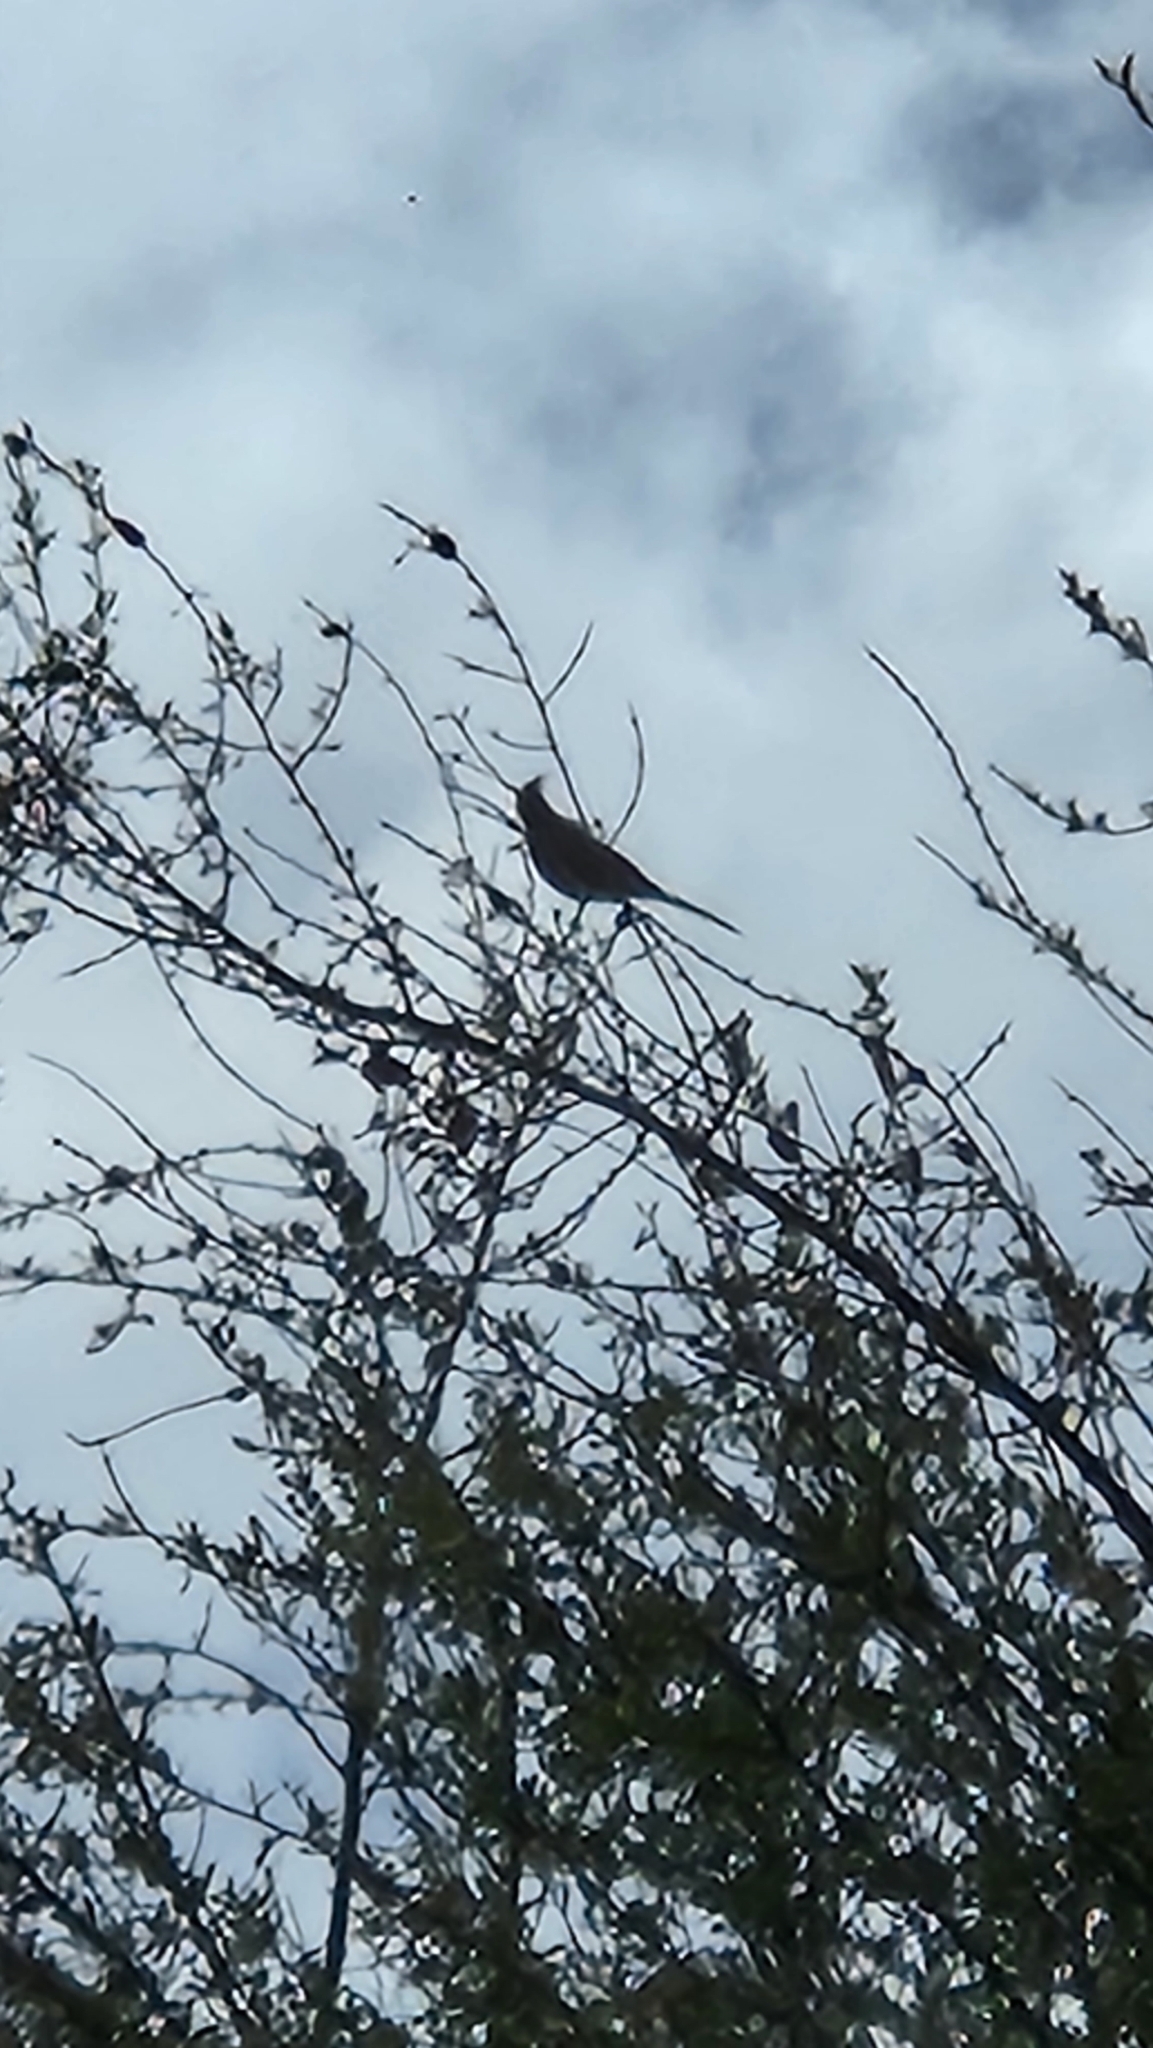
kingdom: Animalia
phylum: Chordata
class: Aves
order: Passeriformes
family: Ptilogonatidae
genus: Phainopepla
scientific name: Phainopepla nitens
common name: Phainopepla
